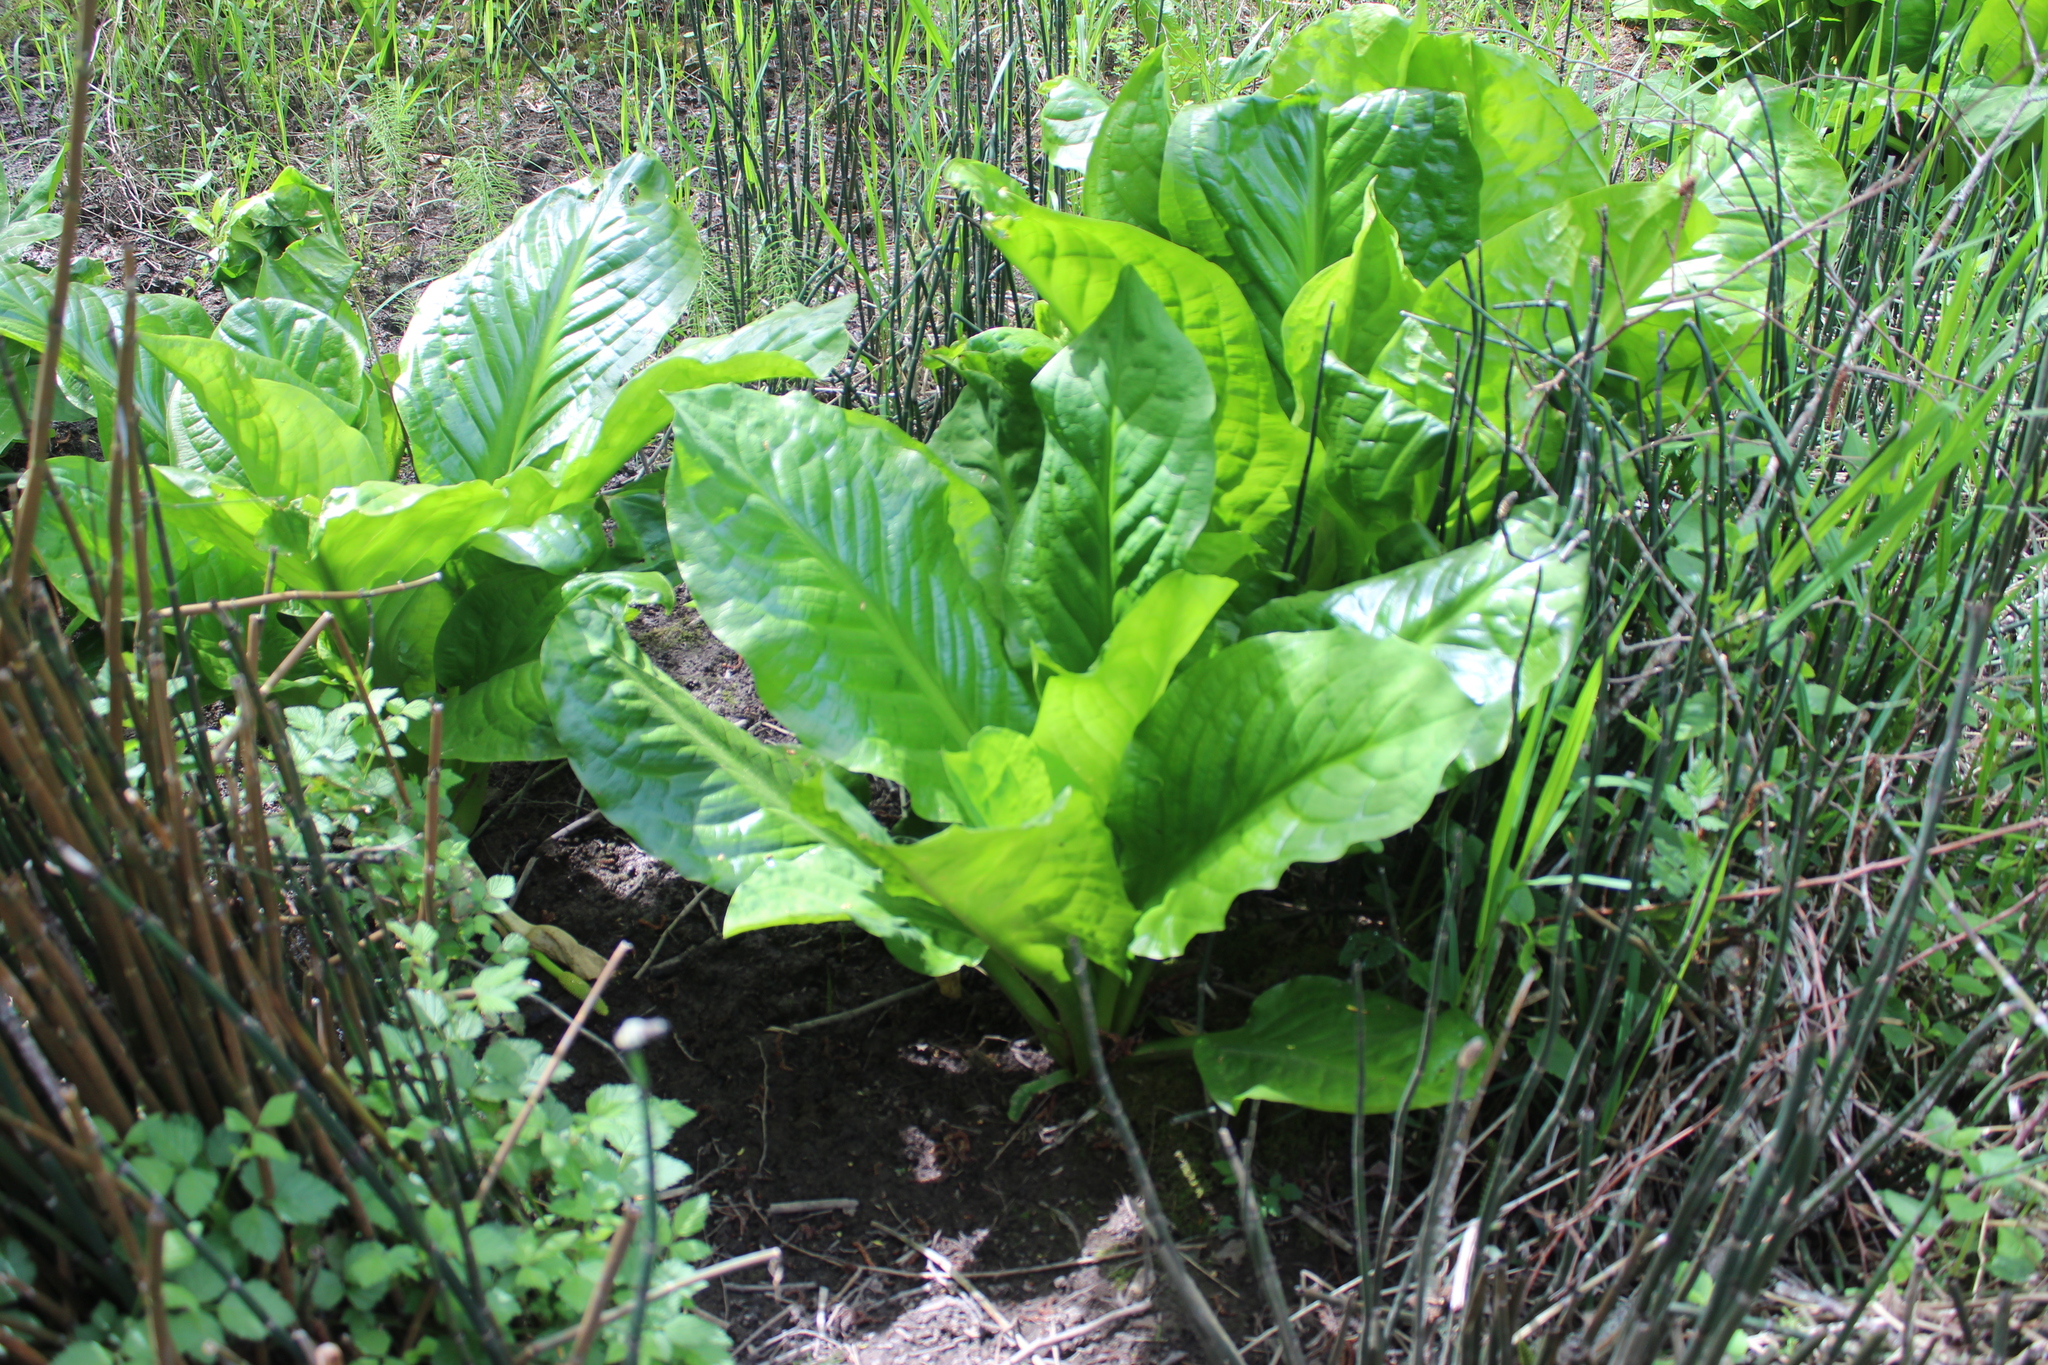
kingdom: Plantae
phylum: Tracheophyta
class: Liliopsida
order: Alismatales
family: Araceae
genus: Lysichiton
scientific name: Lysichiton americanus
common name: American skunk cabbage
